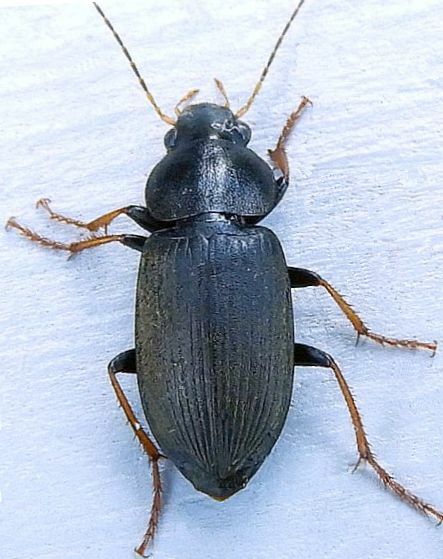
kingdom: Animalia
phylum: Arthropoda
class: Insecta
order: Coleoptera
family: Carabidae
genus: Amphasia
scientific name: Amphasia sericea
